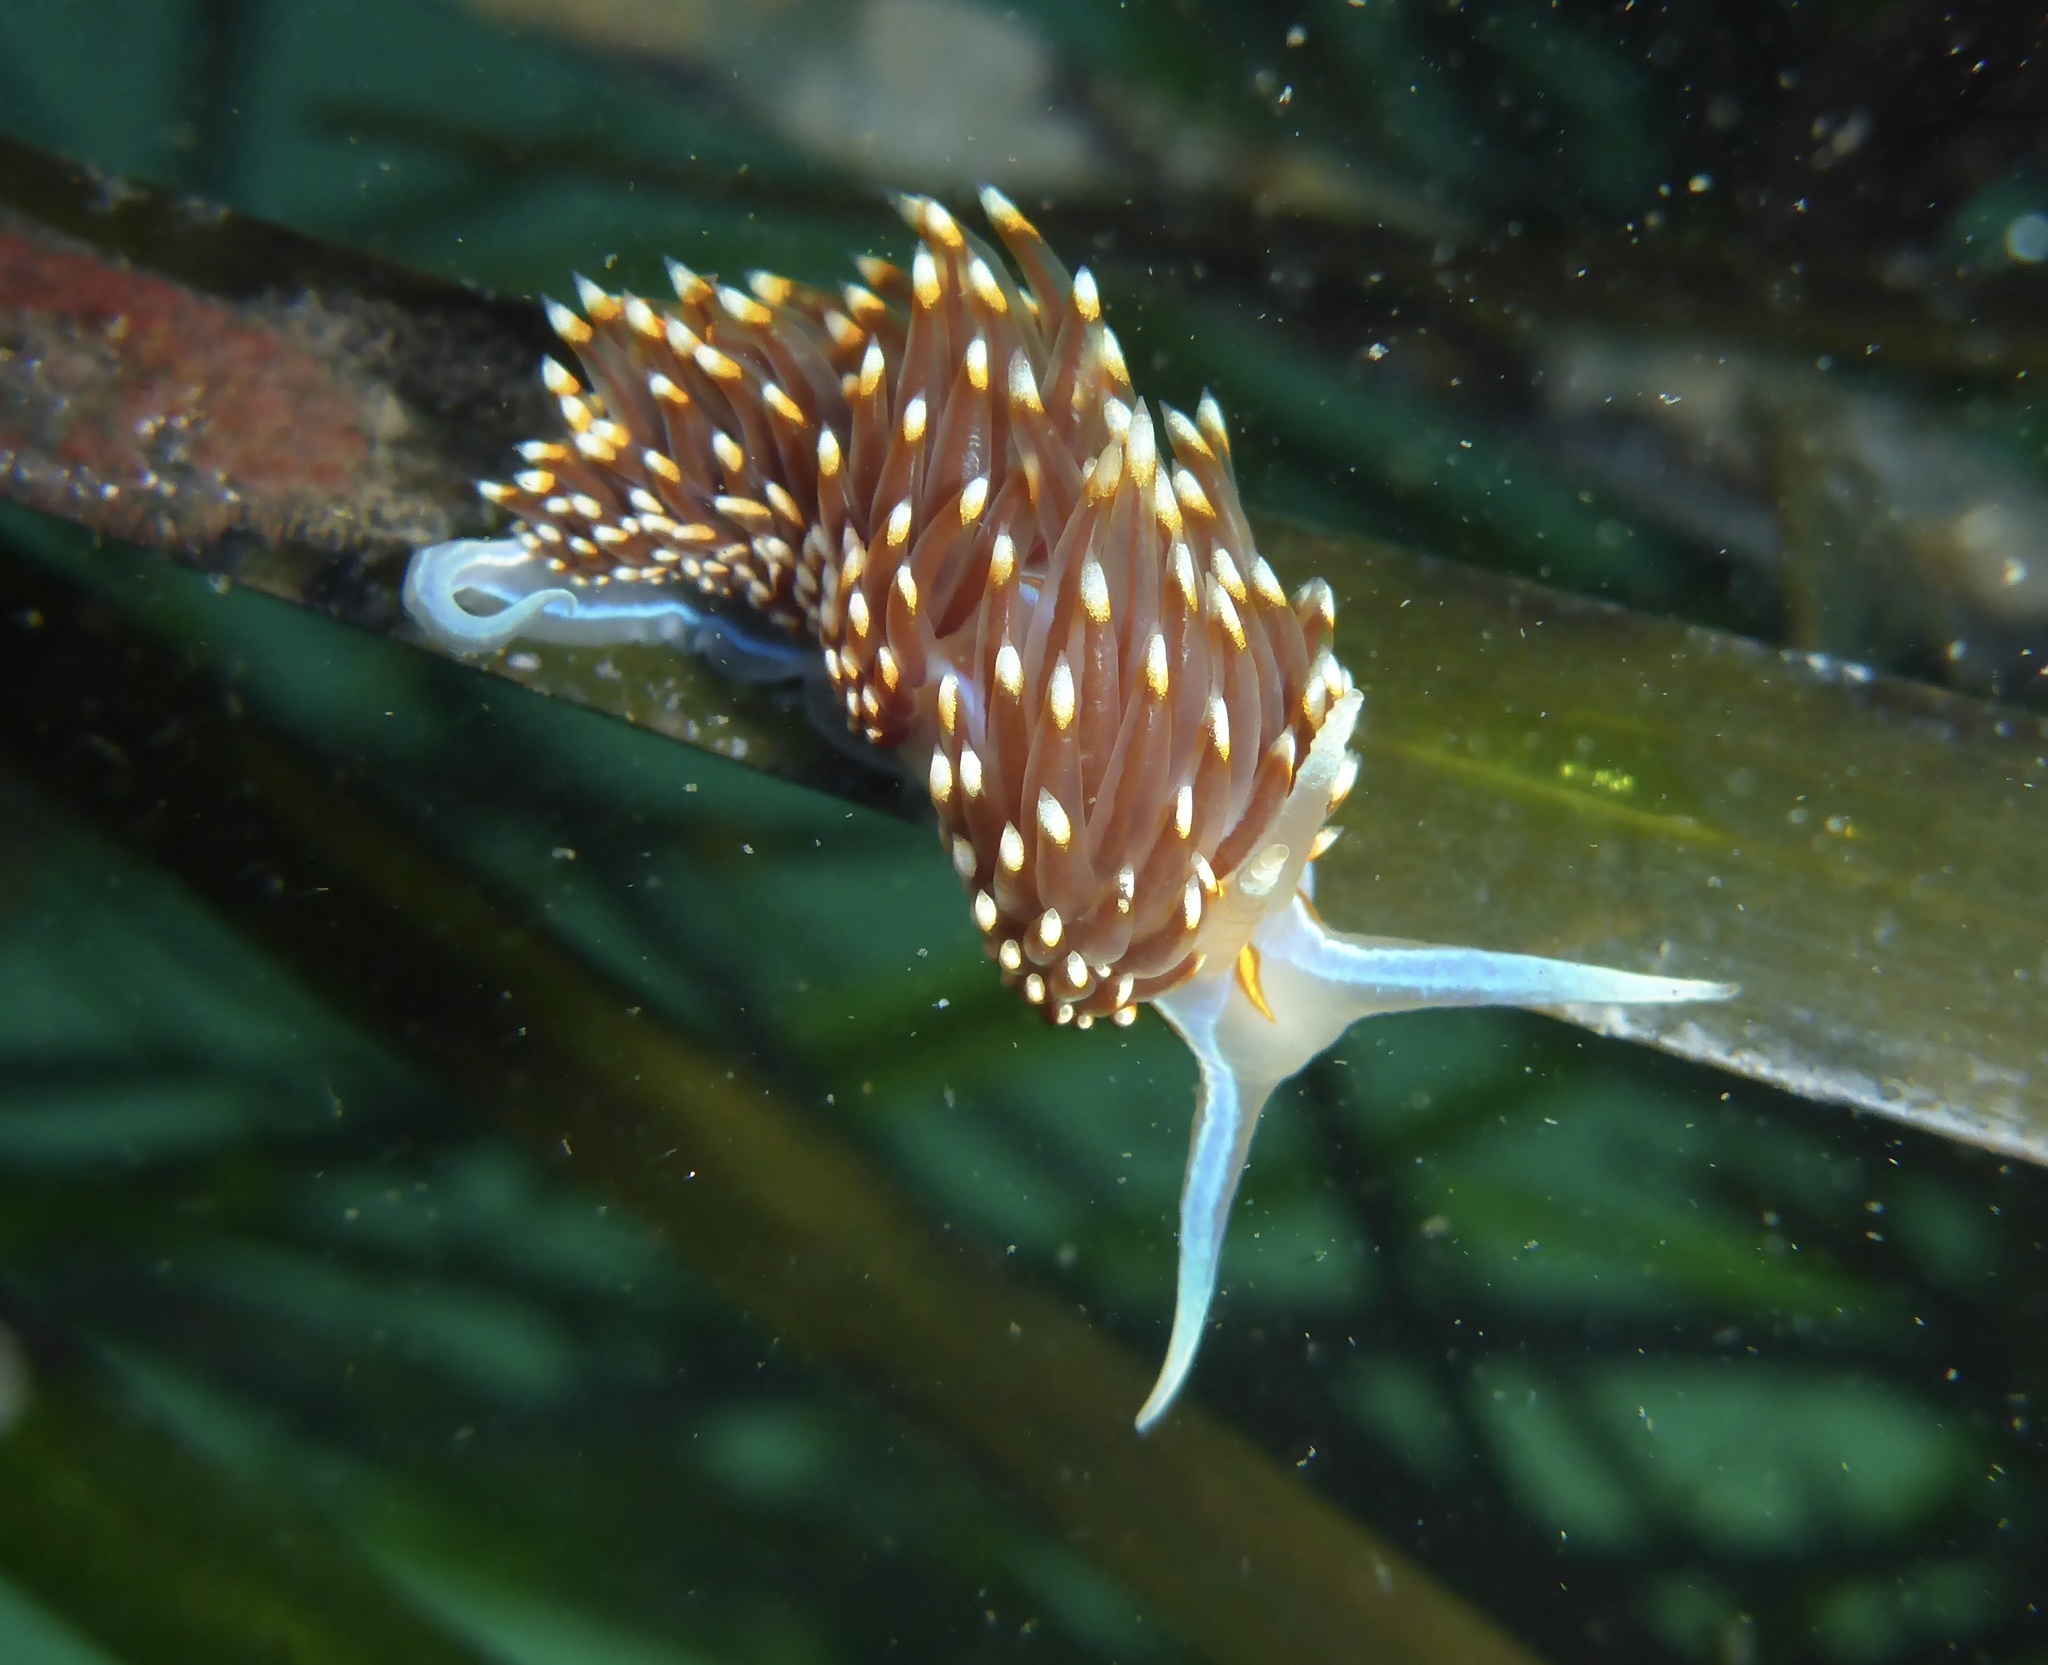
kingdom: Animalia
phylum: Mollusca
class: Gastropoda
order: Nudibranchia
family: Myrrhinidae
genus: Hermissenda
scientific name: Hermissenda opalescens
